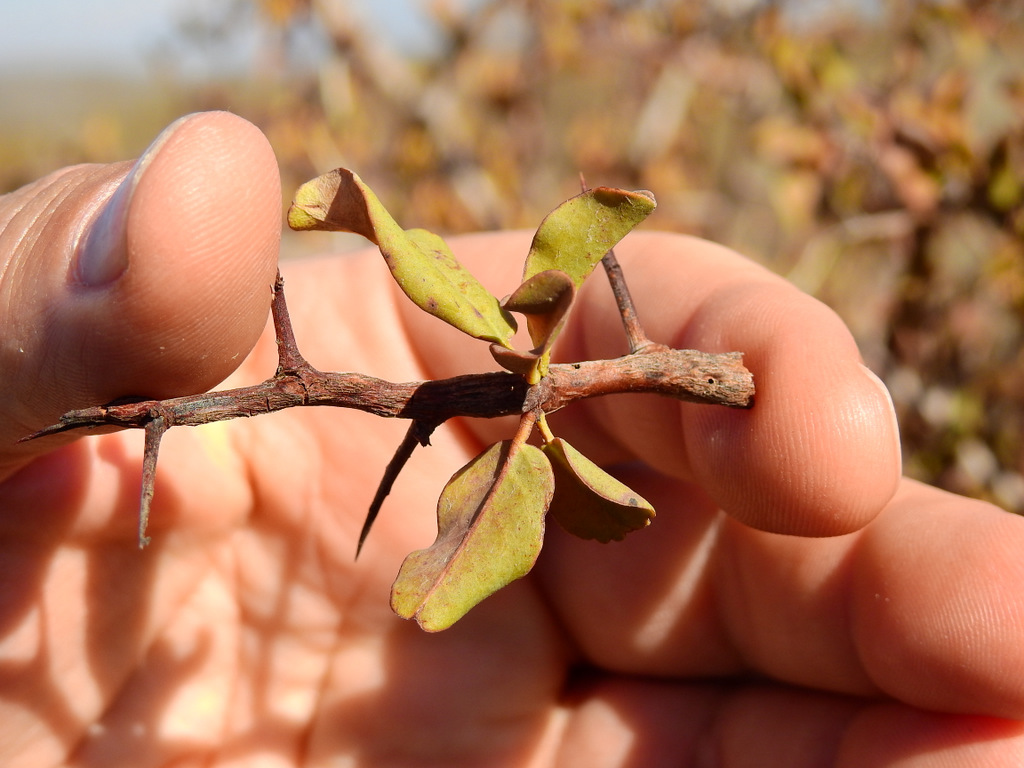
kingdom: Plantae
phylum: Tracheophyta
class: Magnoliopsida
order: Santalales
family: Ximeniaceae
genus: Ximenia
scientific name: Ximenia americana
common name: Tallowwood
